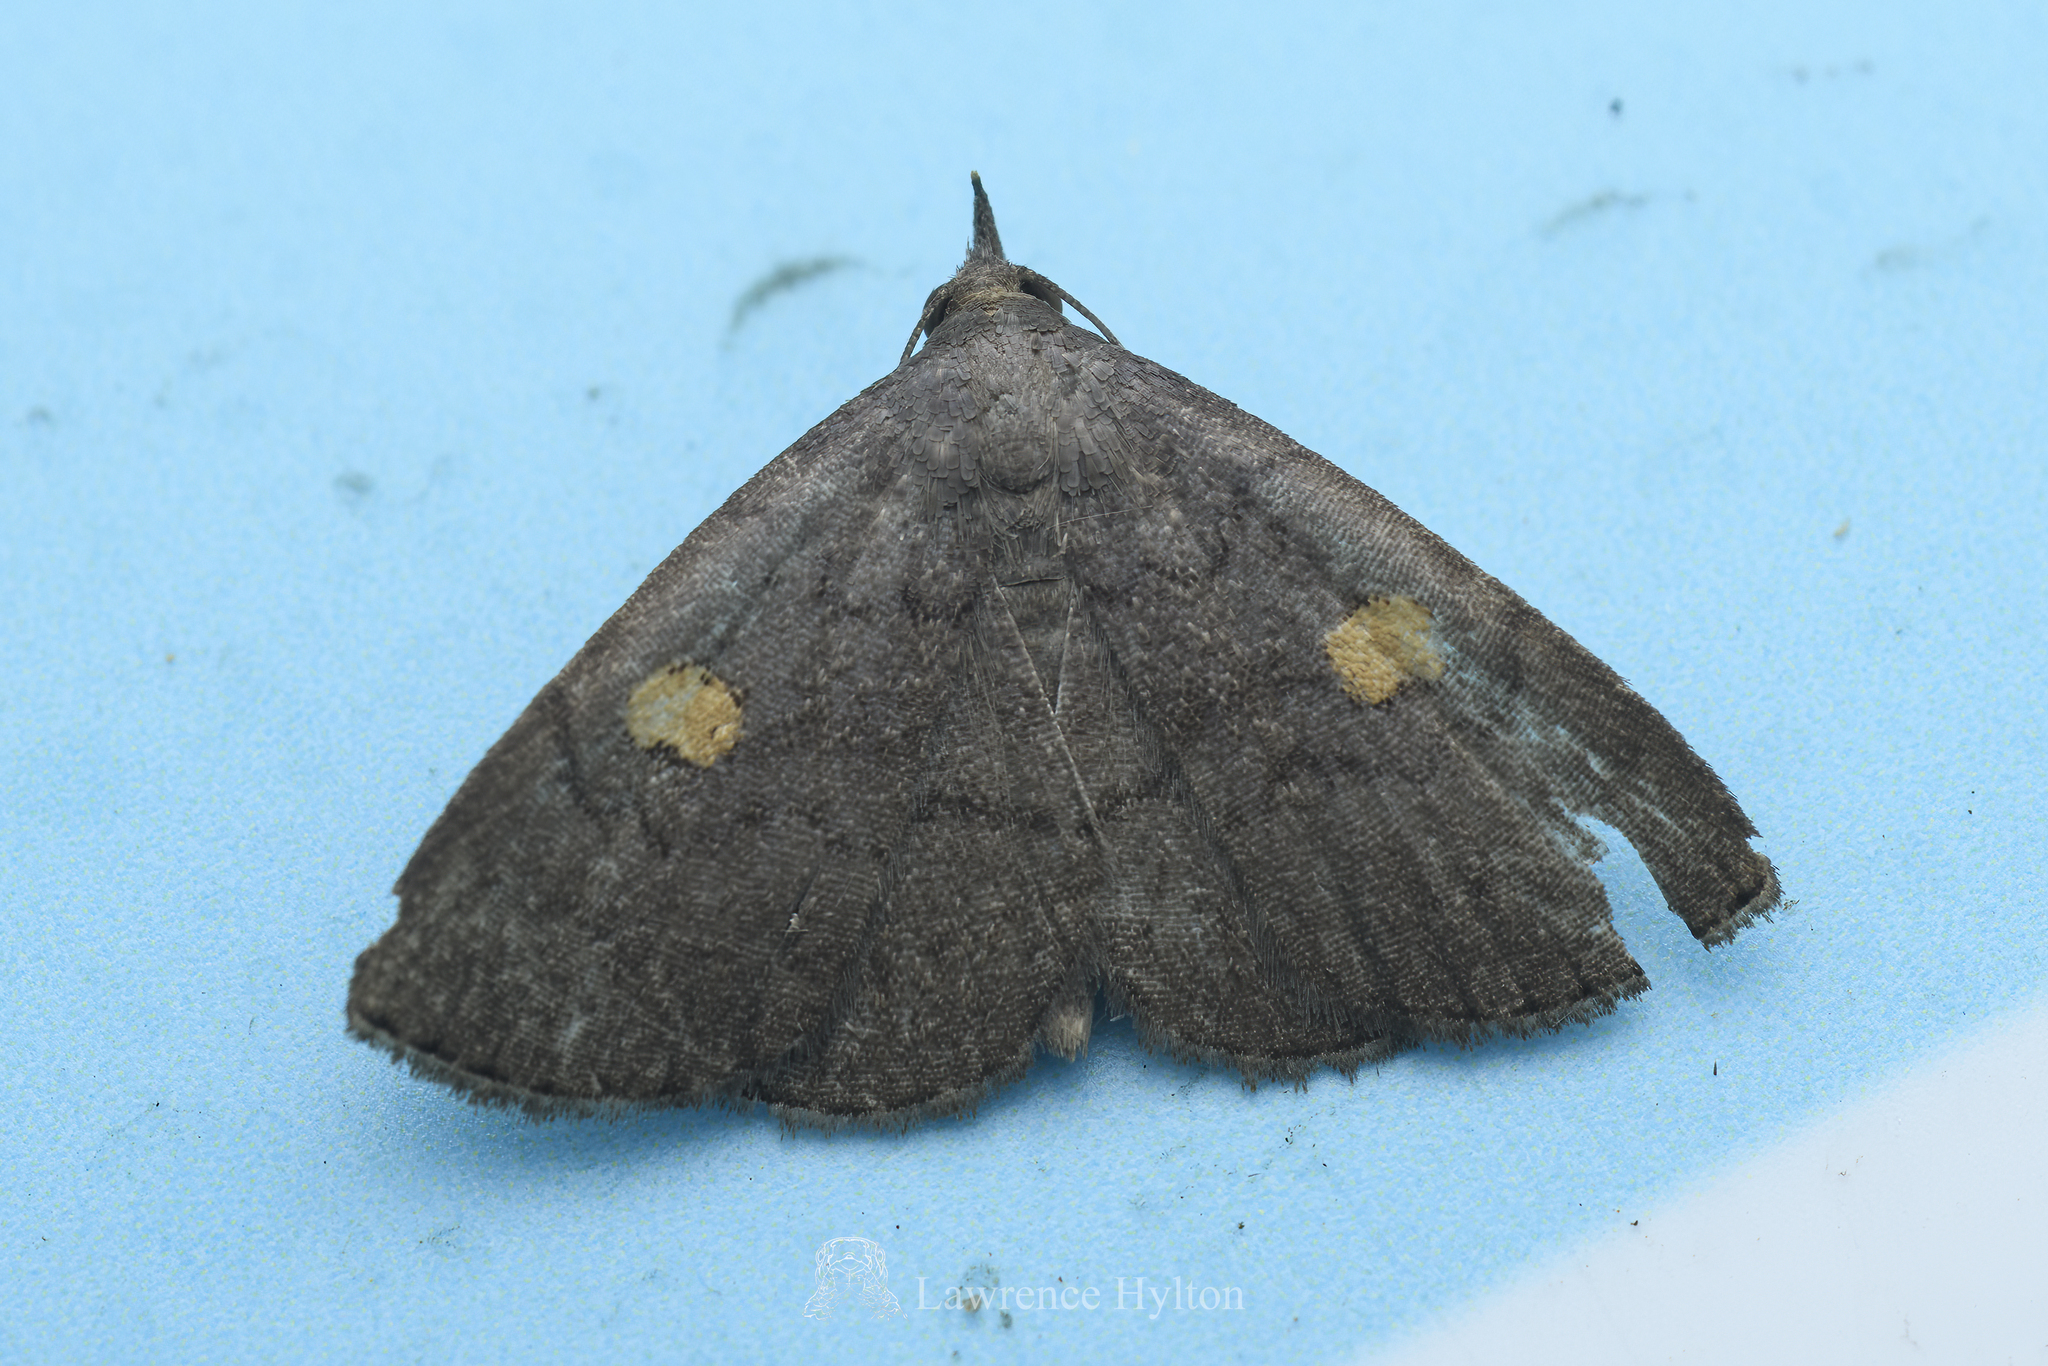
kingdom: Animalia
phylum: Arthropoda
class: Insecta
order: Lepidoptera
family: Erebidae
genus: Paracolax
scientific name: Paracolax sugii
